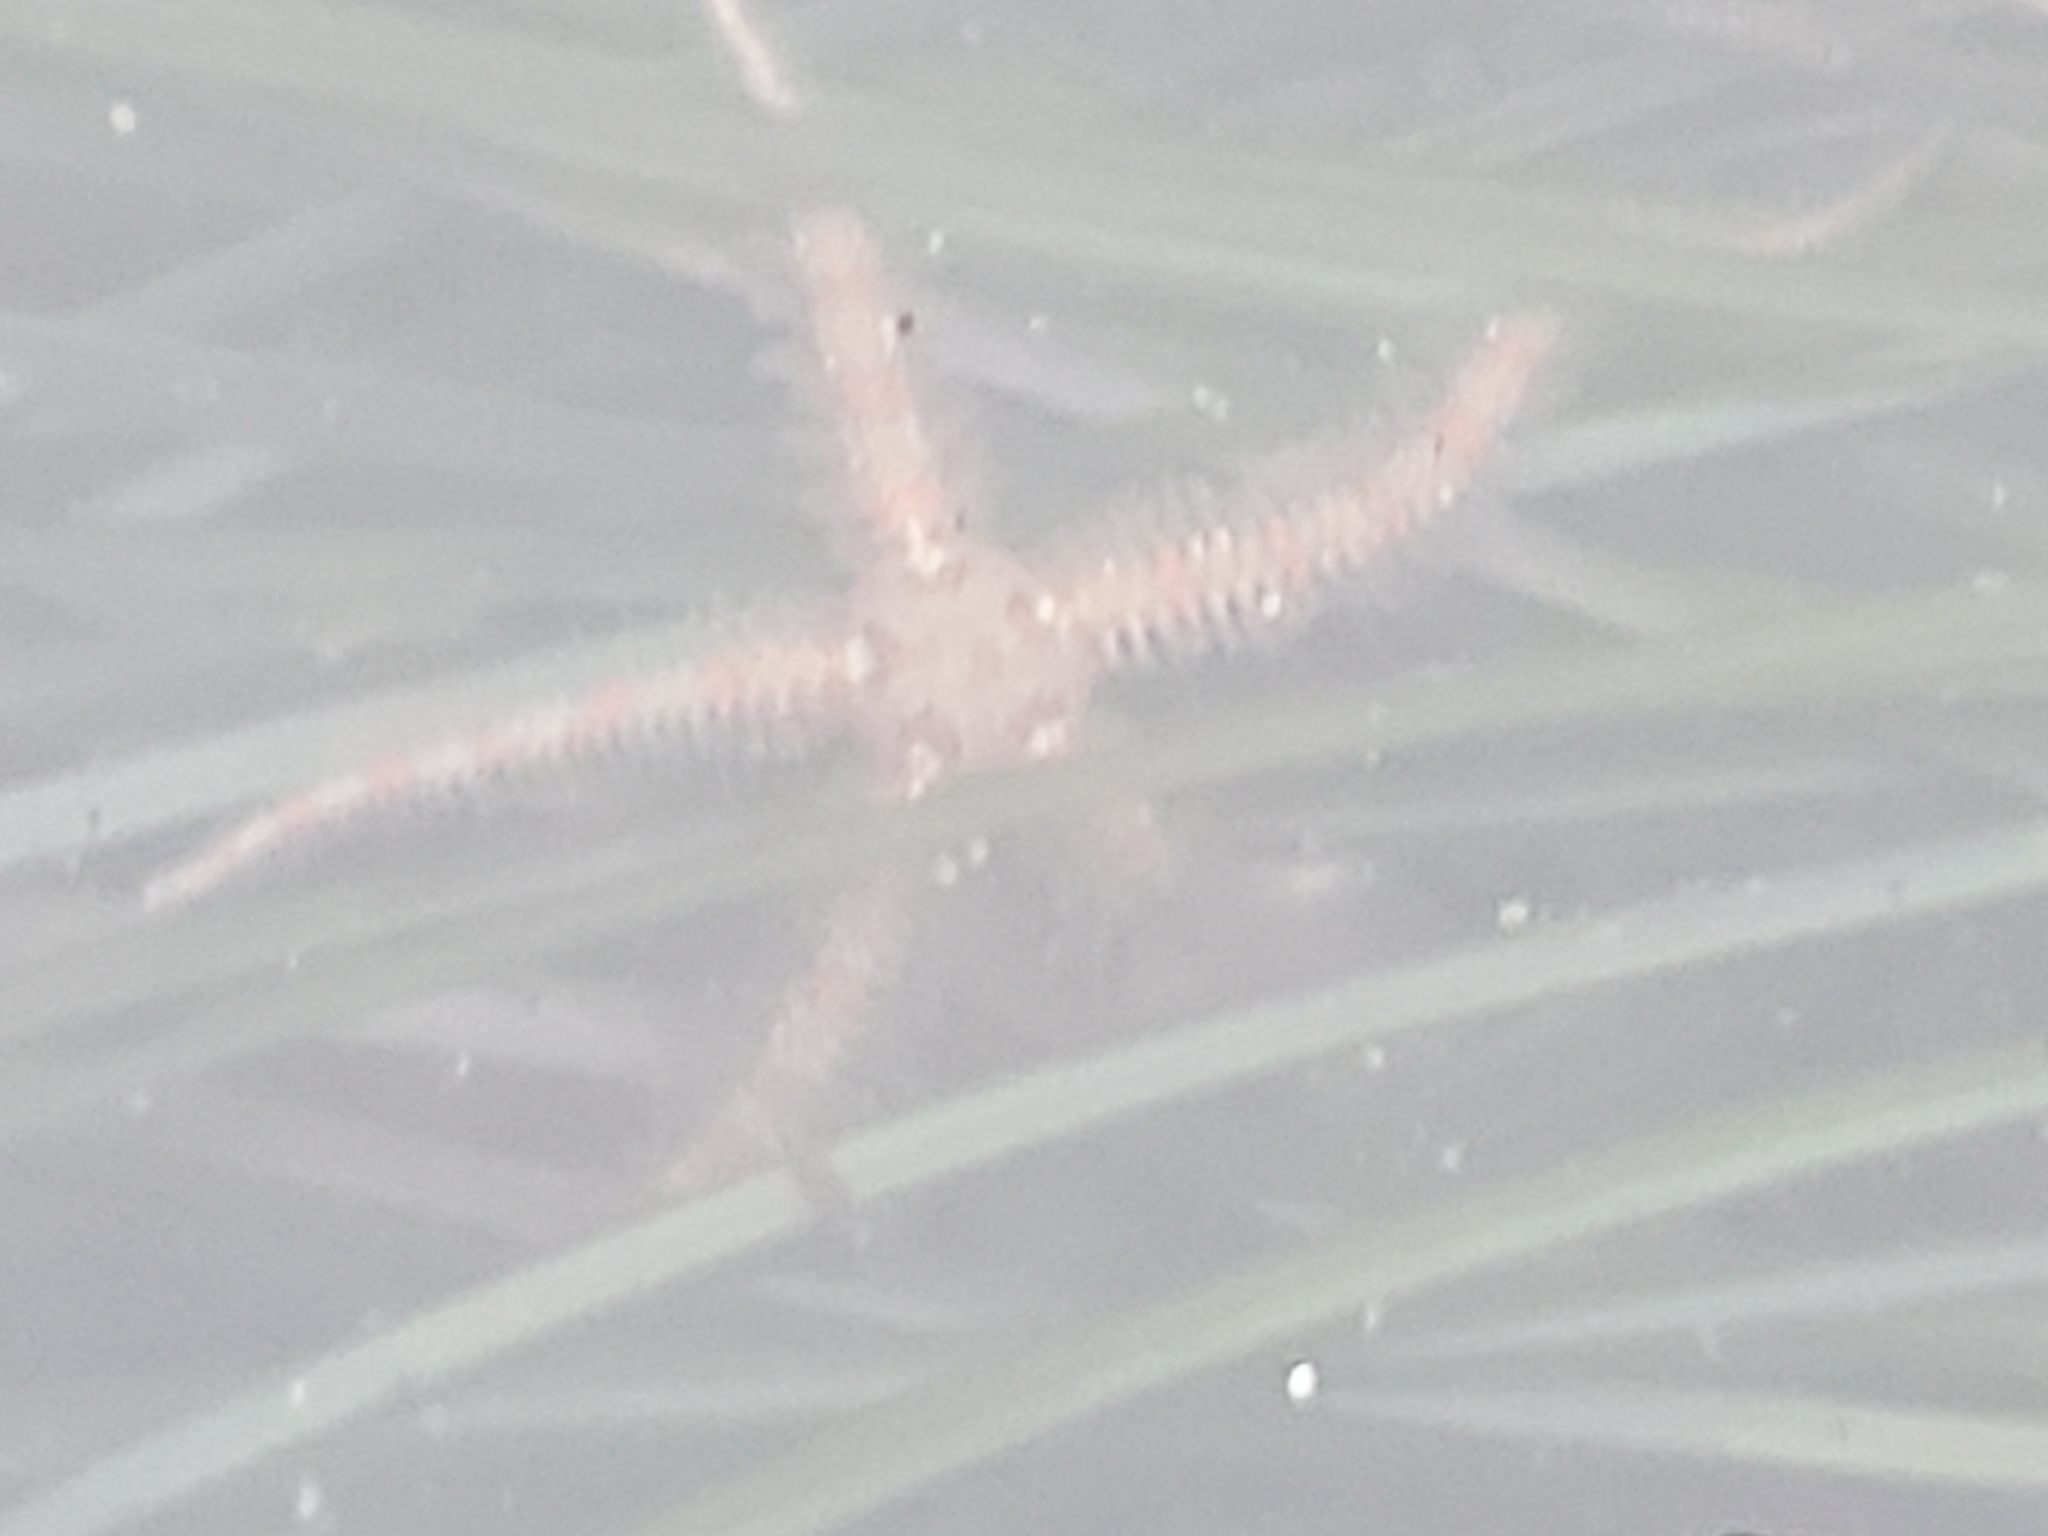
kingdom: Animalia
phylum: Echinodermata
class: Ophiuroidea
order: Amphilepidida
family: Ophiotrichidae
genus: Ophiothrix
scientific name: Ophiothrix spiculata
